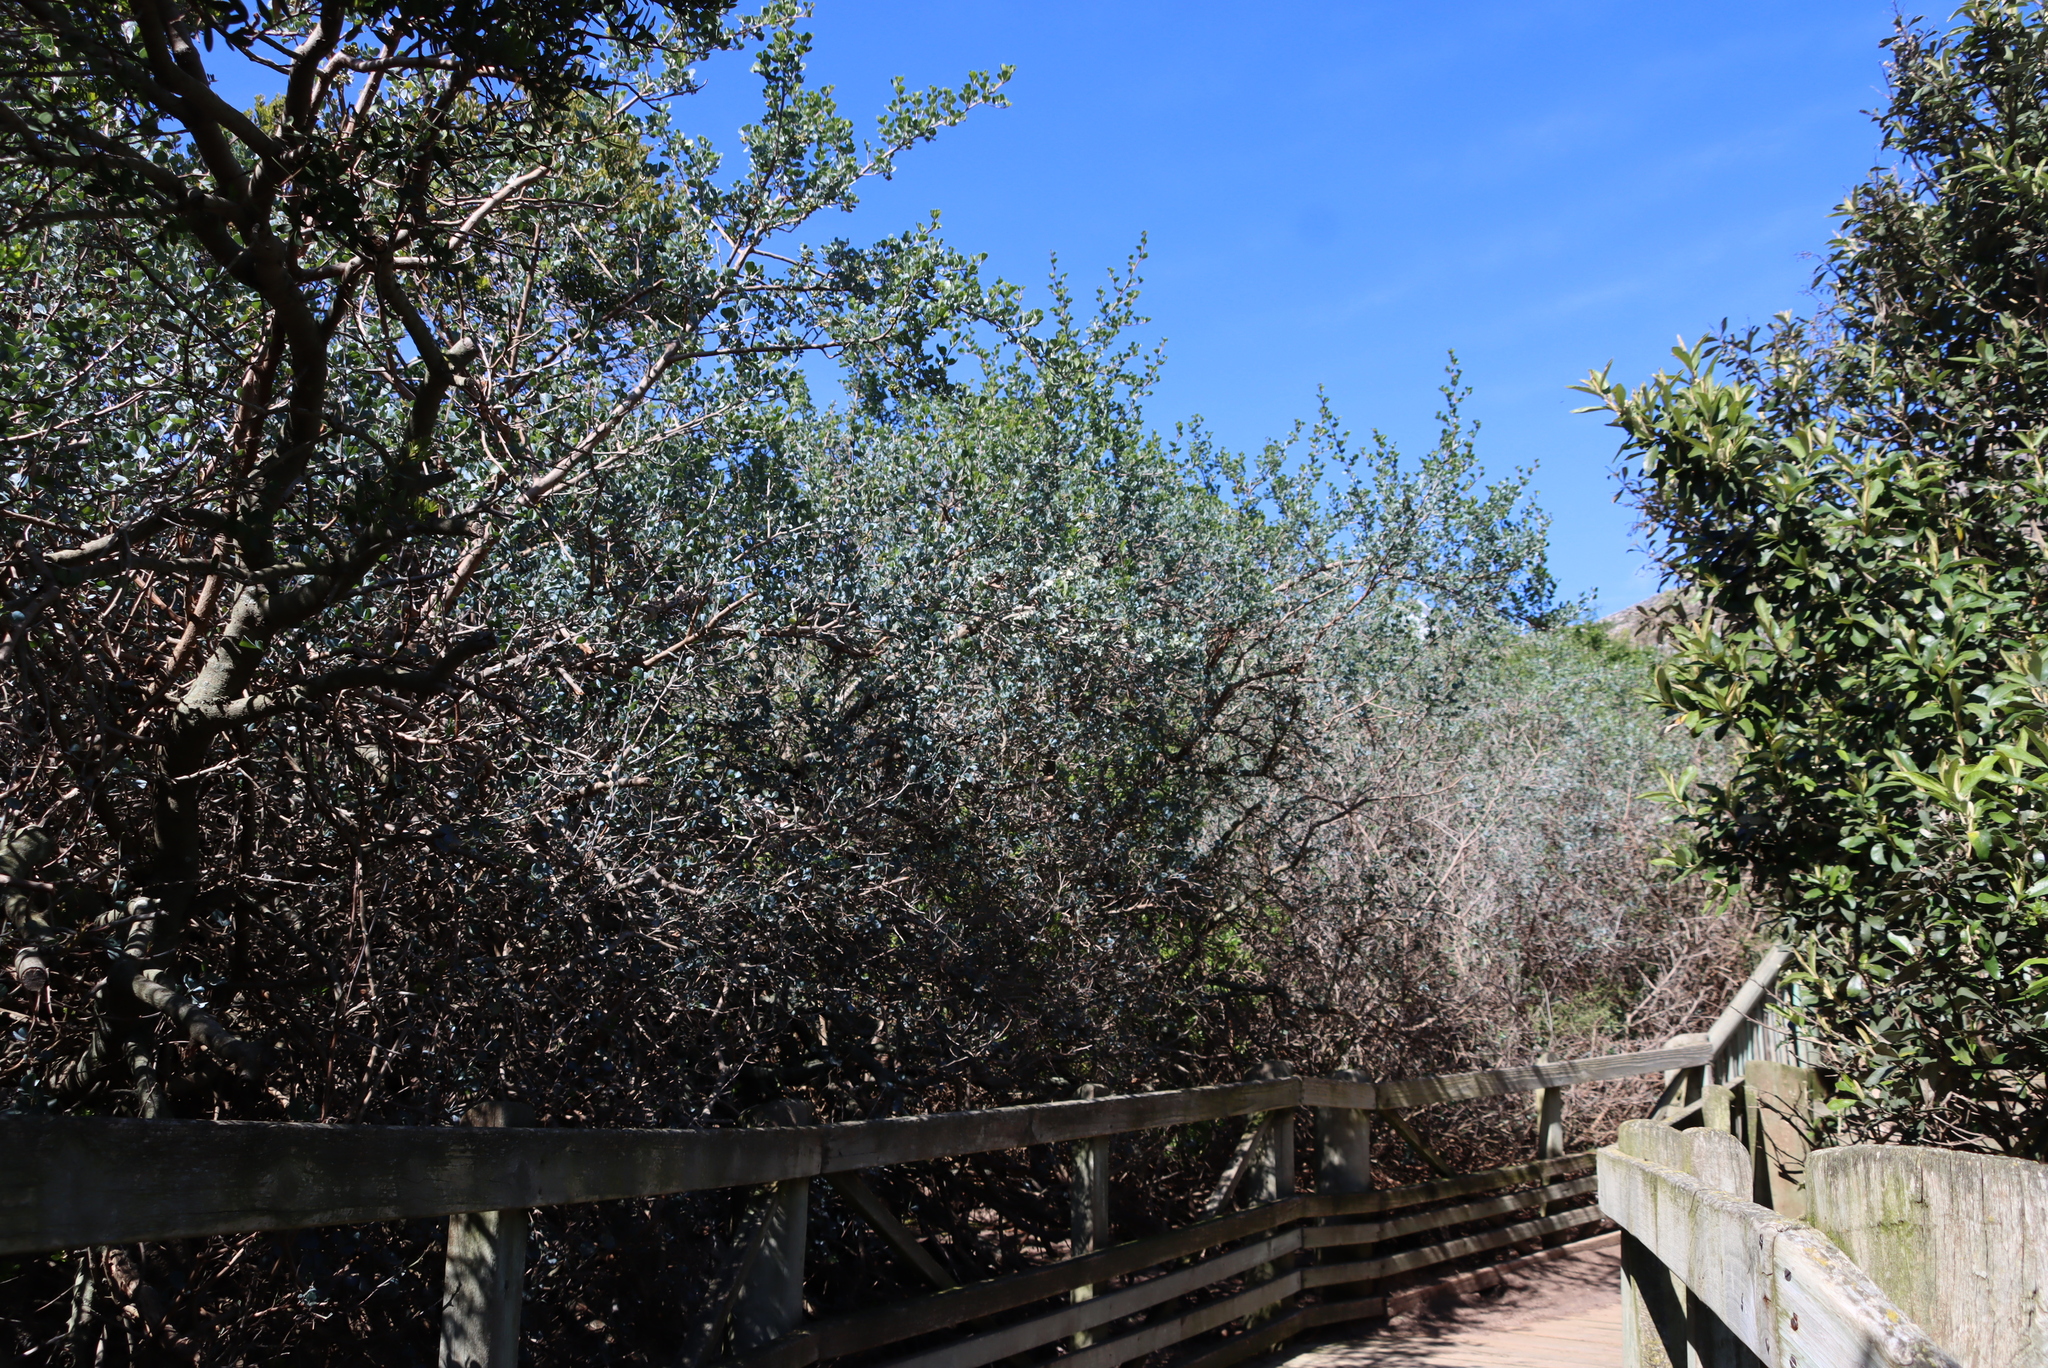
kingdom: Plantae
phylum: Tracheophyta
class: Magnoliopsida
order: Sapindales
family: Anacardiaceae
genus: Searsia
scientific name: Searsia glauca
